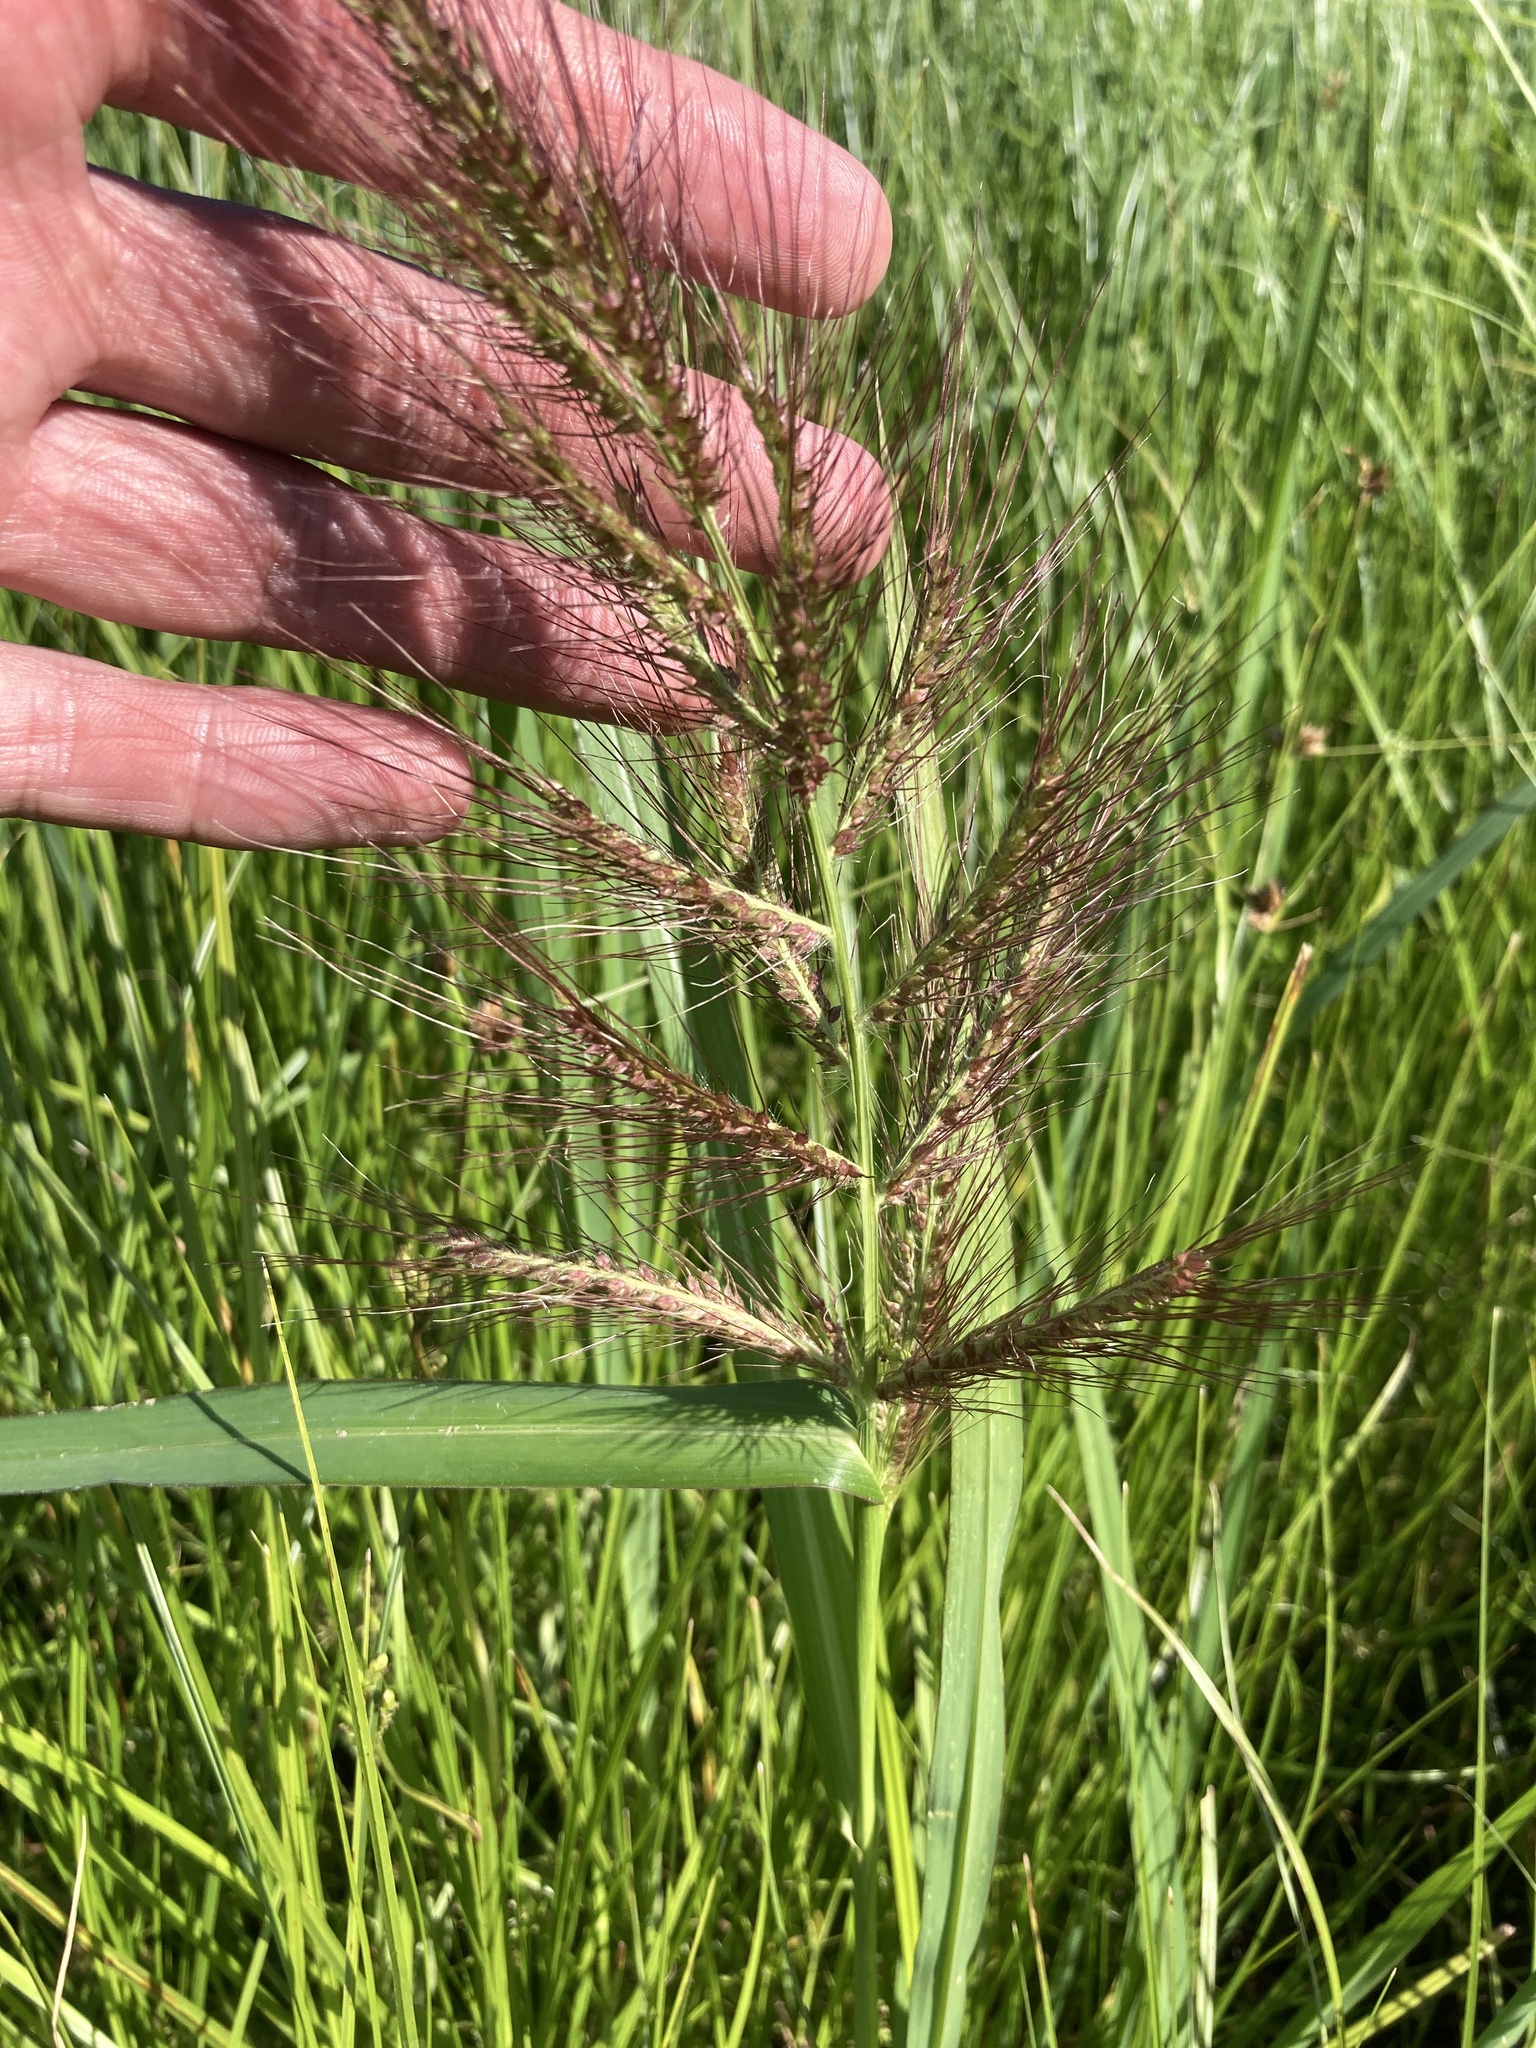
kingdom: Plantae
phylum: Tracheophyta
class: Liliopsida
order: Poales
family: Poaceae
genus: Echinochloa
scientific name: Echinochloa crus-galli
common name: Cockspur
